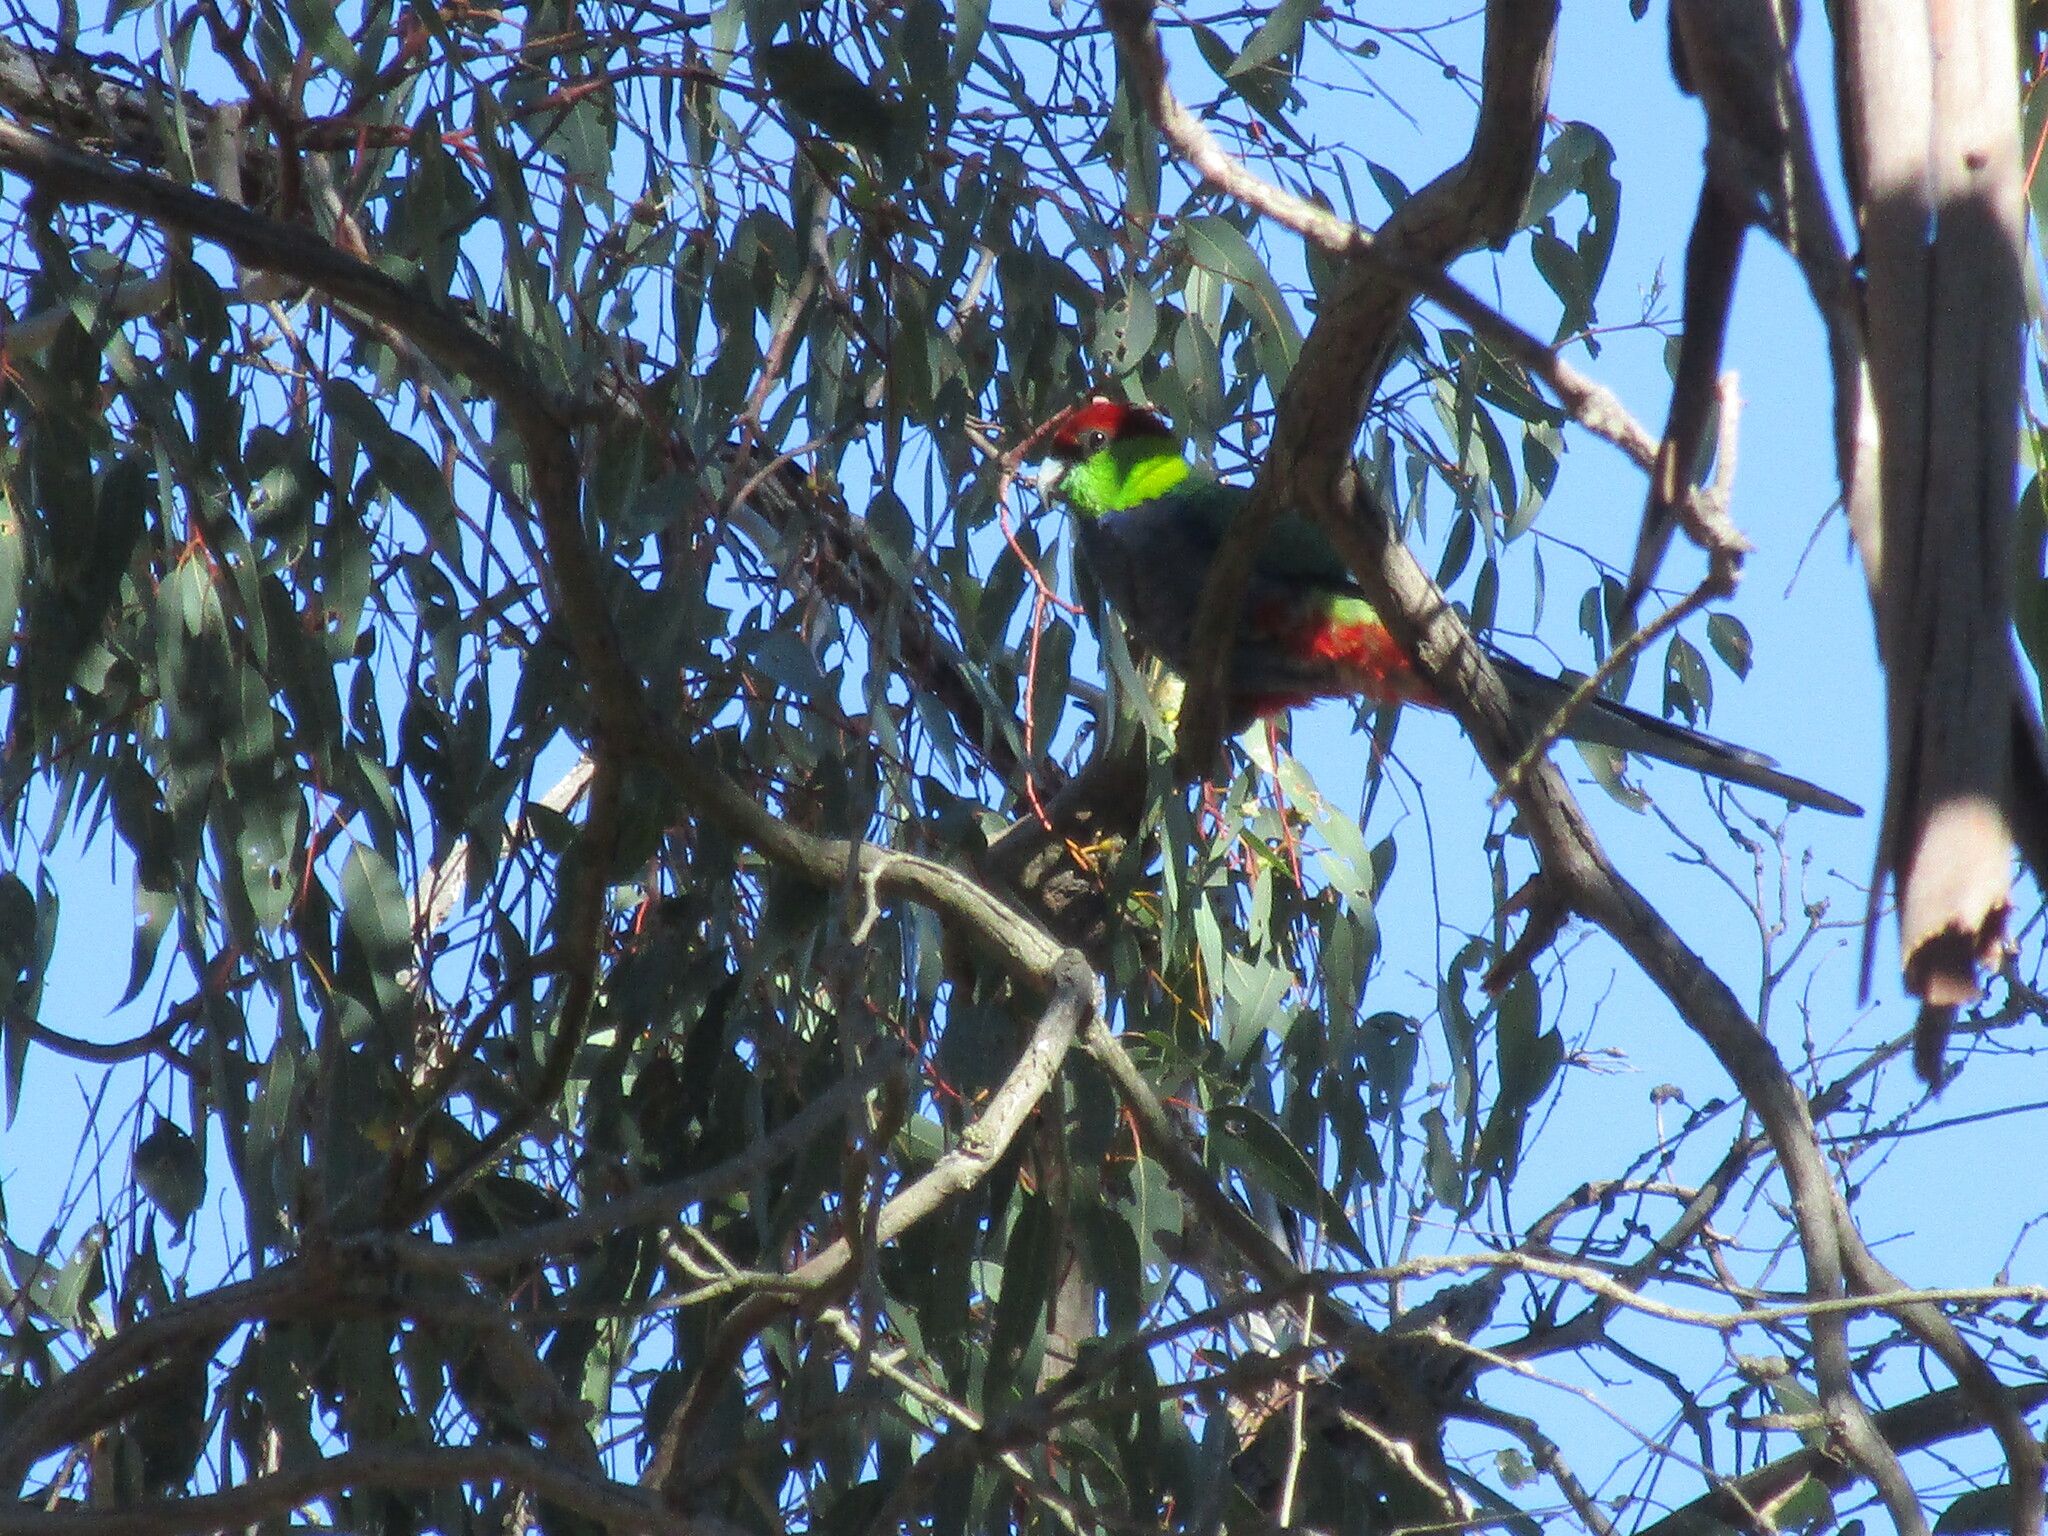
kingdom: Animalia
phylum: Chordata
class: Aves
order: Psittaciformes
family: Psittacidae
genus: Purpureicephalus
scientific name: Purpureicephalus spurius
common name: Red-capped parrot
